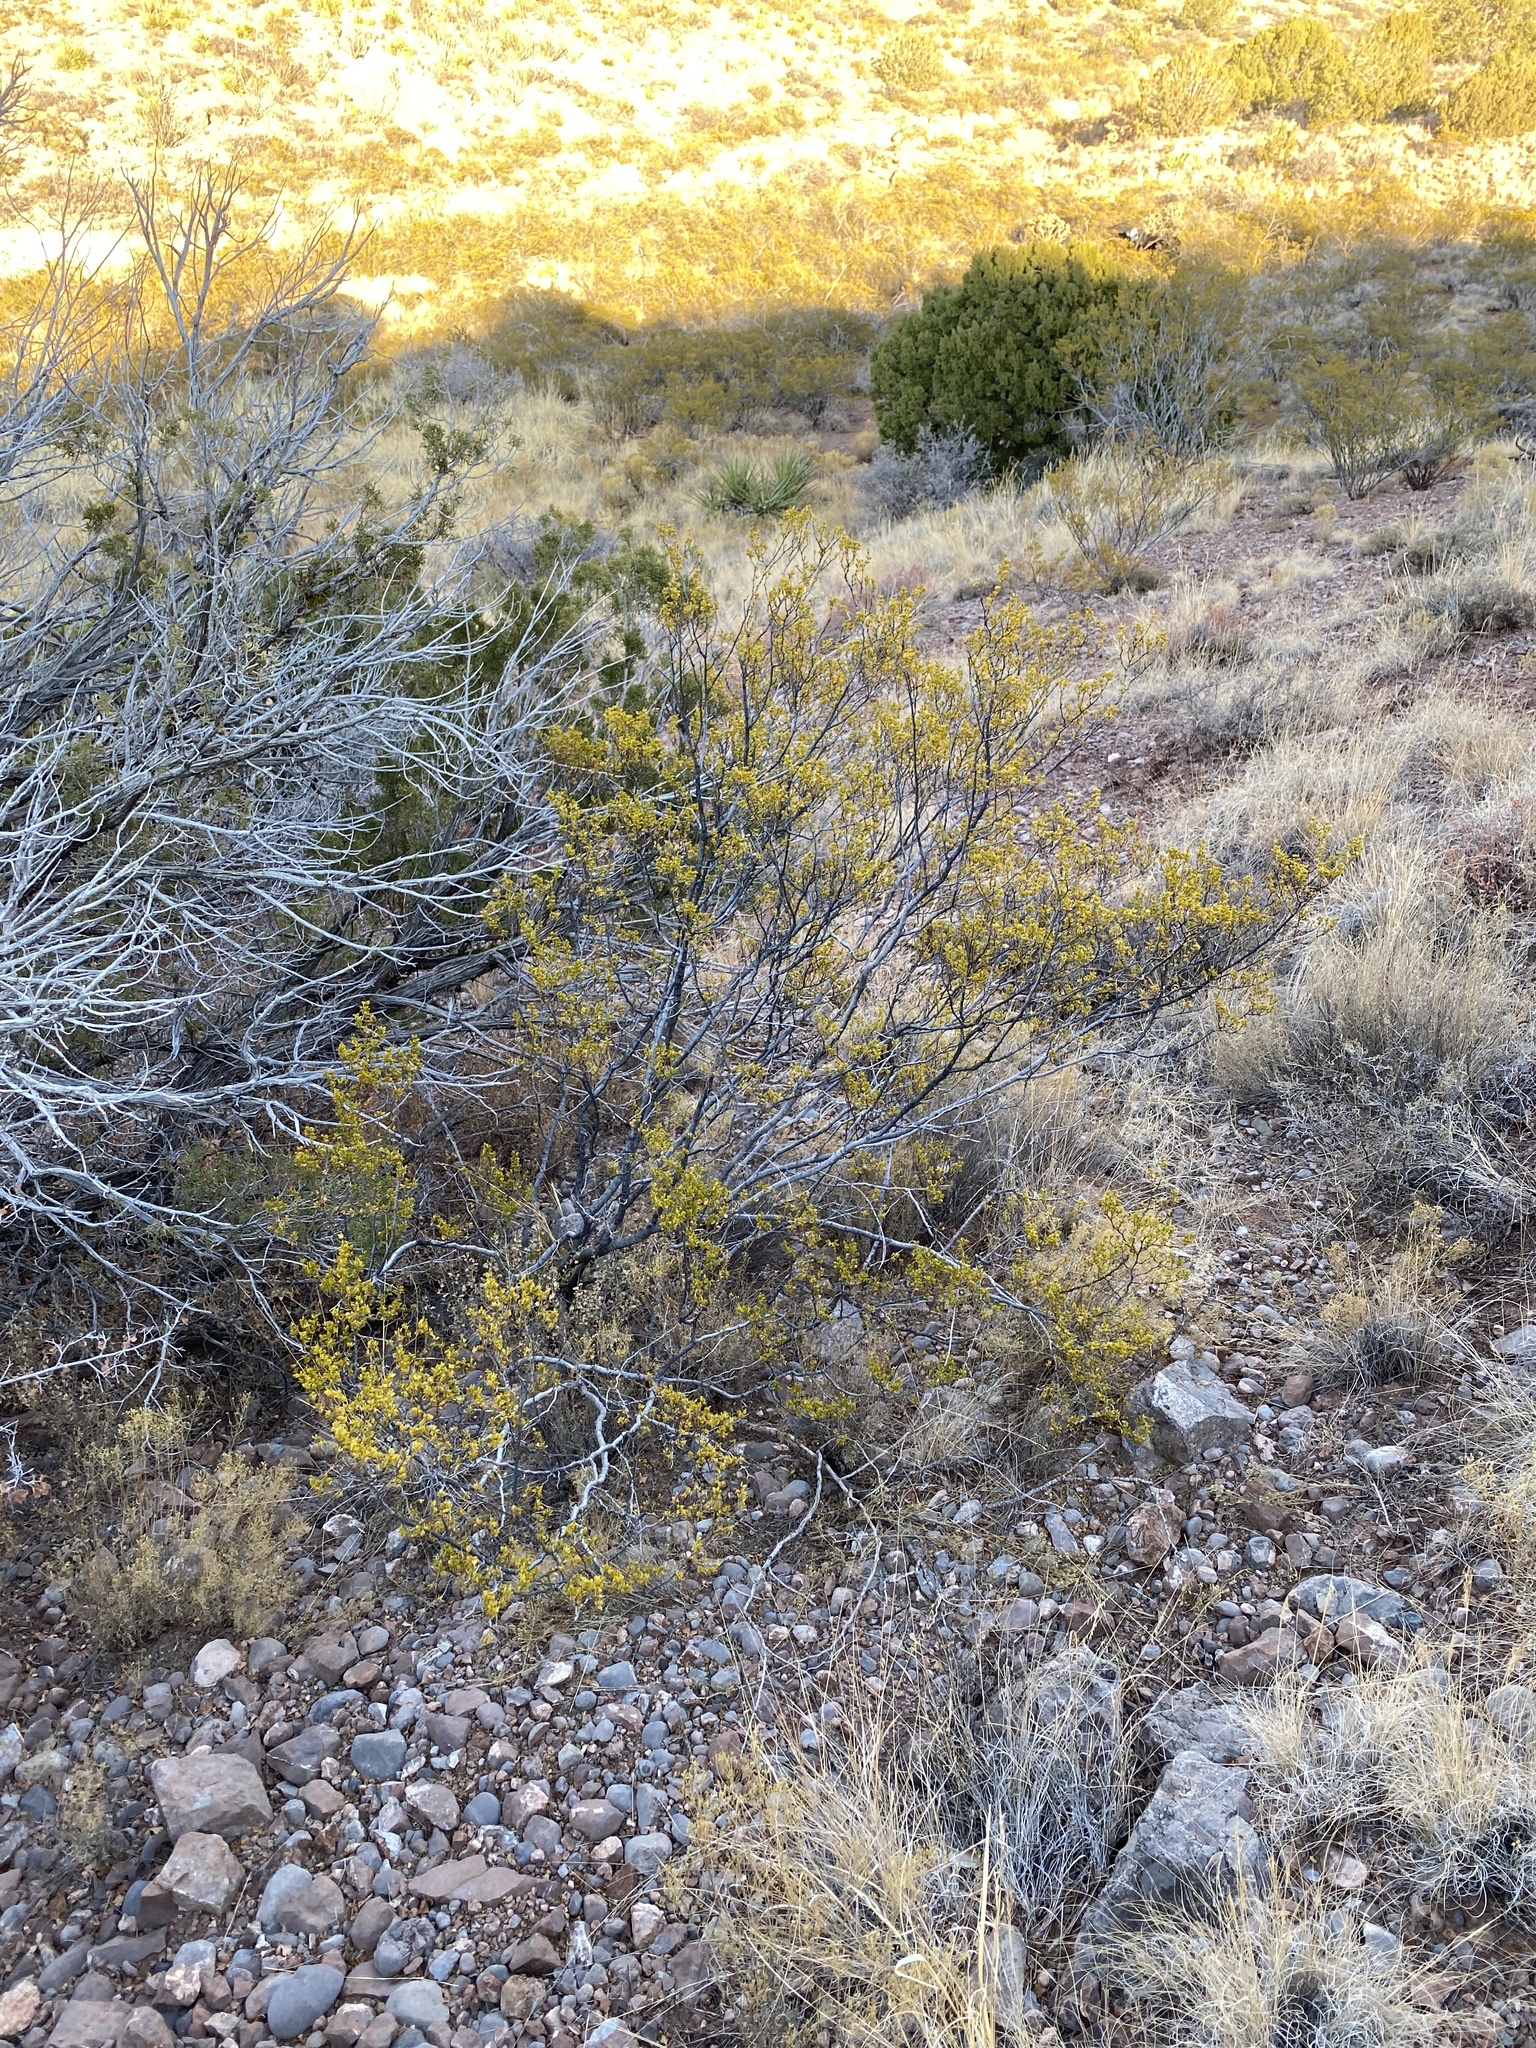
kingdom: Plantae
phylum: Tracheophyta
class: Magnoliopsida
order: Zygophyllales
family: Zygophyllaceae
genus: Larrea
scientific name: Larrea tridentata
